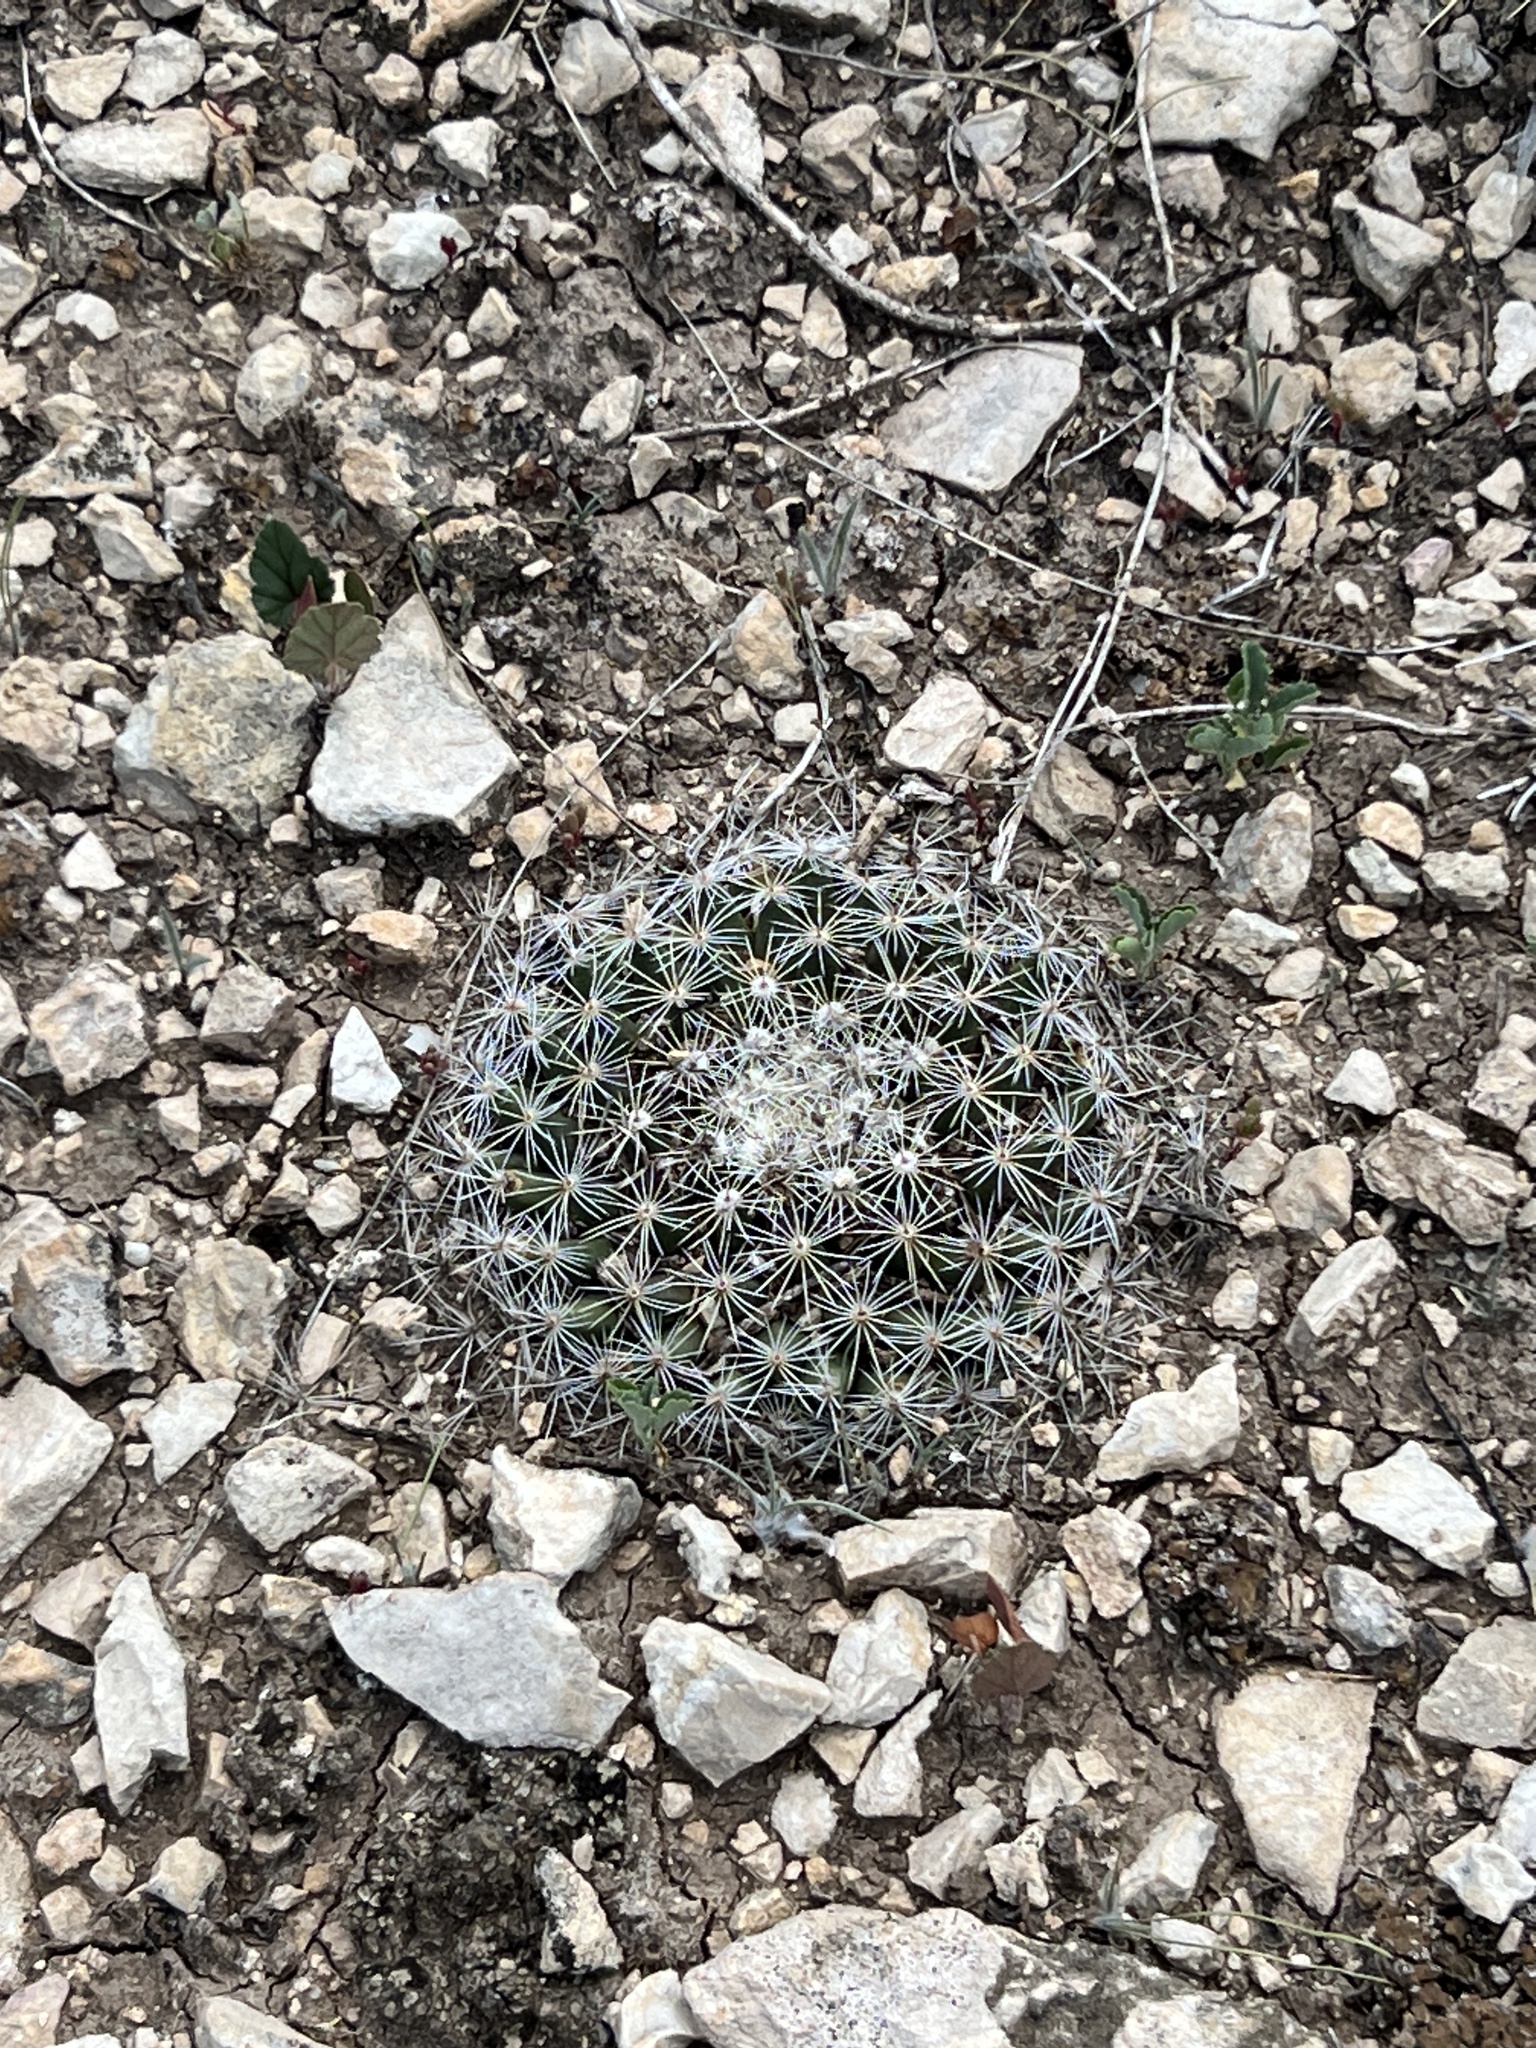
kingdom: Plantae
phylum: Tracheophyta
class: Magnoliopsida
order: Caryophyllales
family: Cactaceae
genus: Mammillaria
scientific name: Mammillaria heyderi
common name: Little nipple cactus
